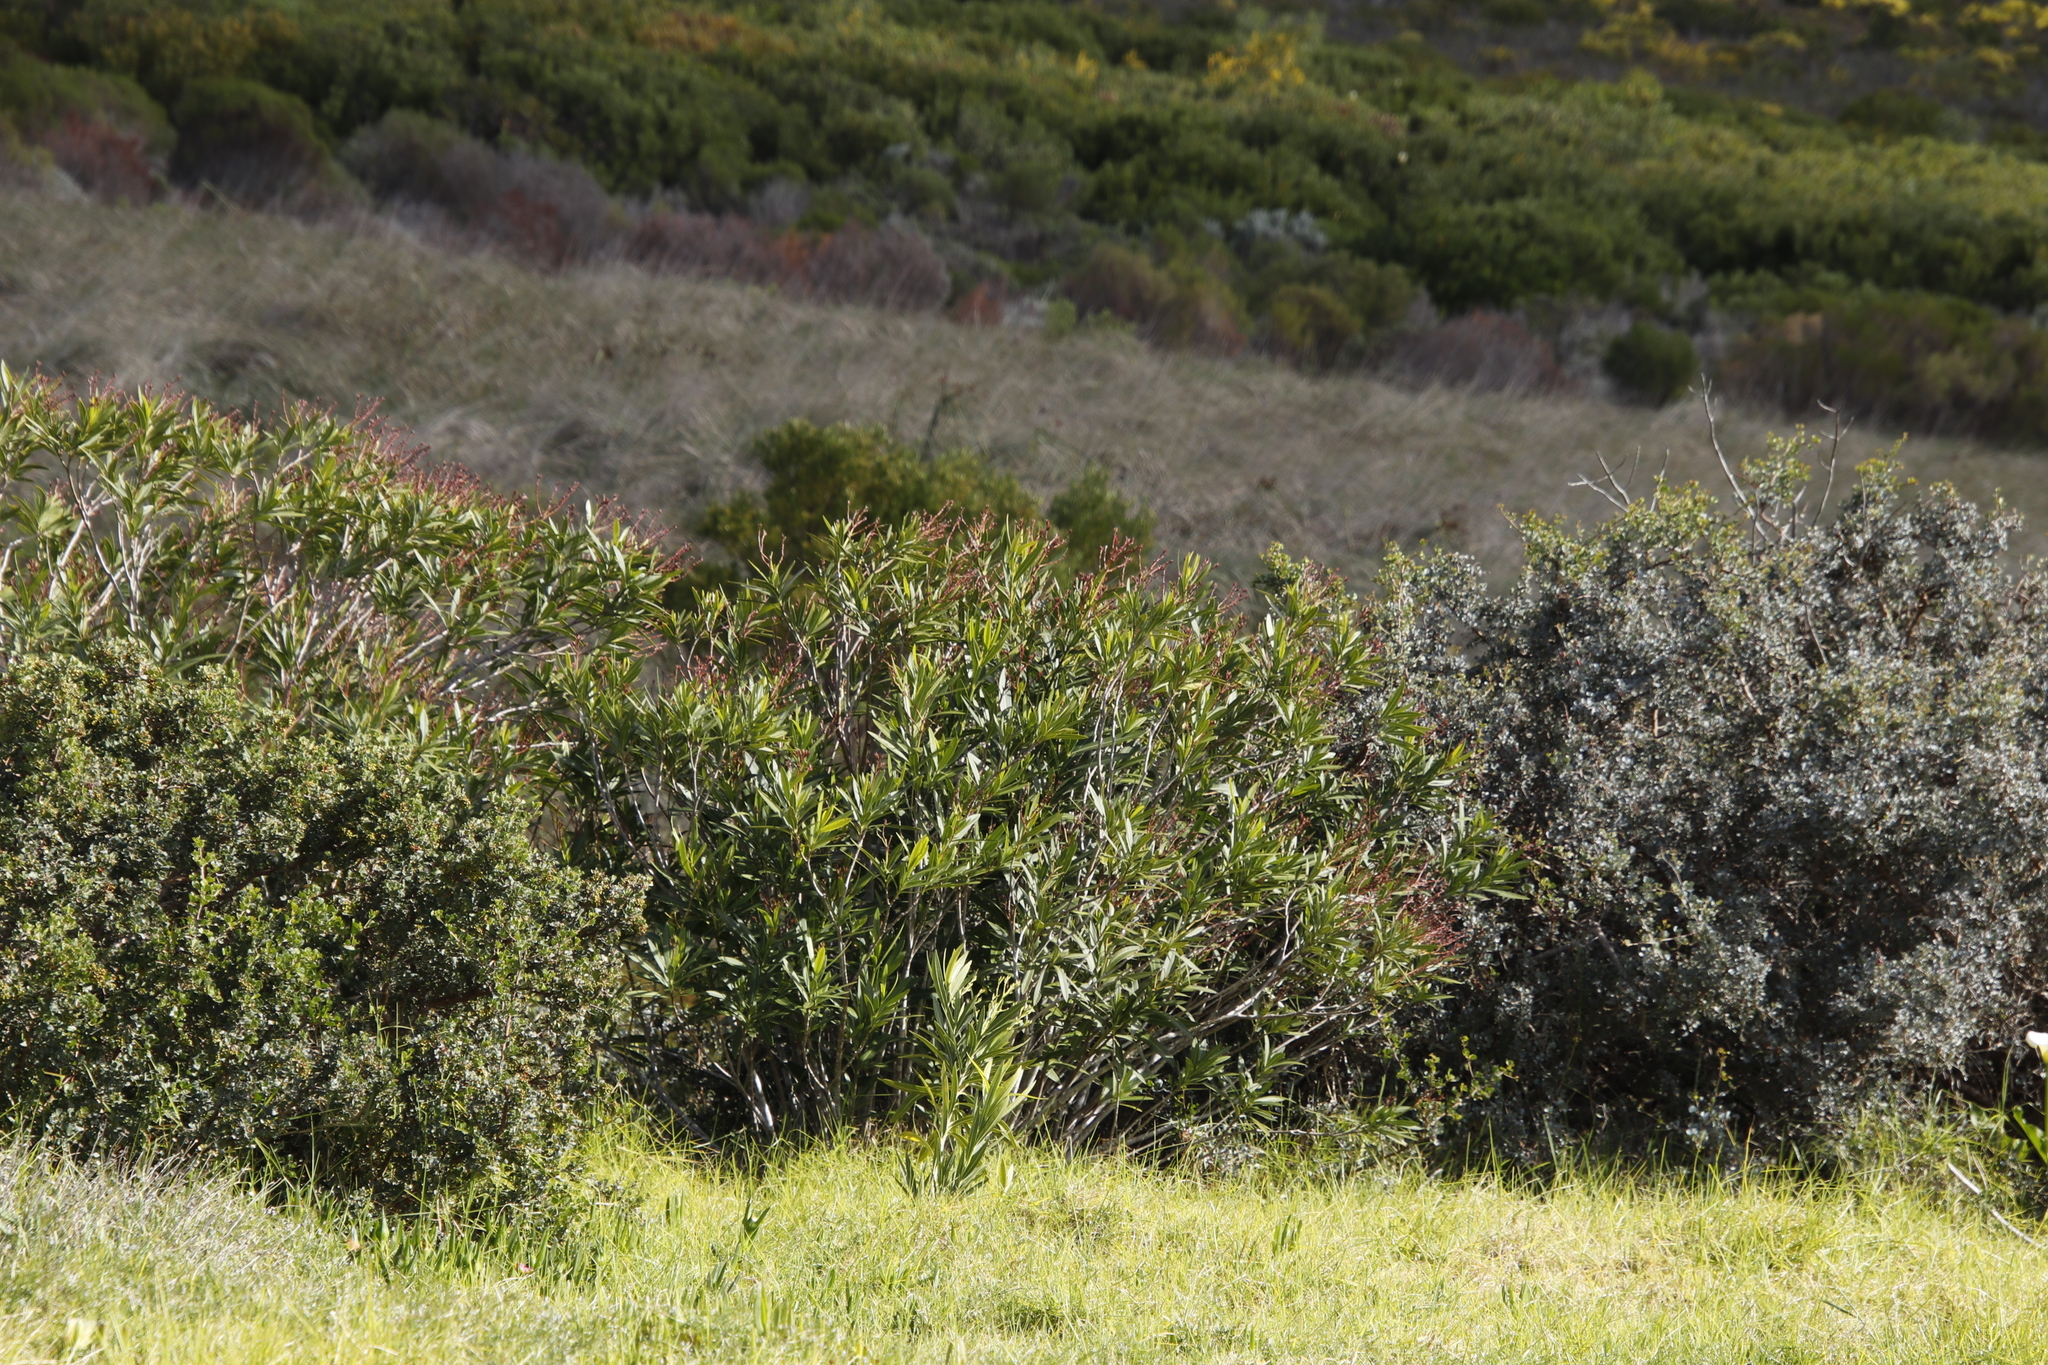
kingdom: Plantae
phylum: Tracheophyta
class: Magnoliopsida
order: Gentianales
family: Apocynaceae
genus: Nerium
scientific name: Nerium oleander
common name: Oleander
